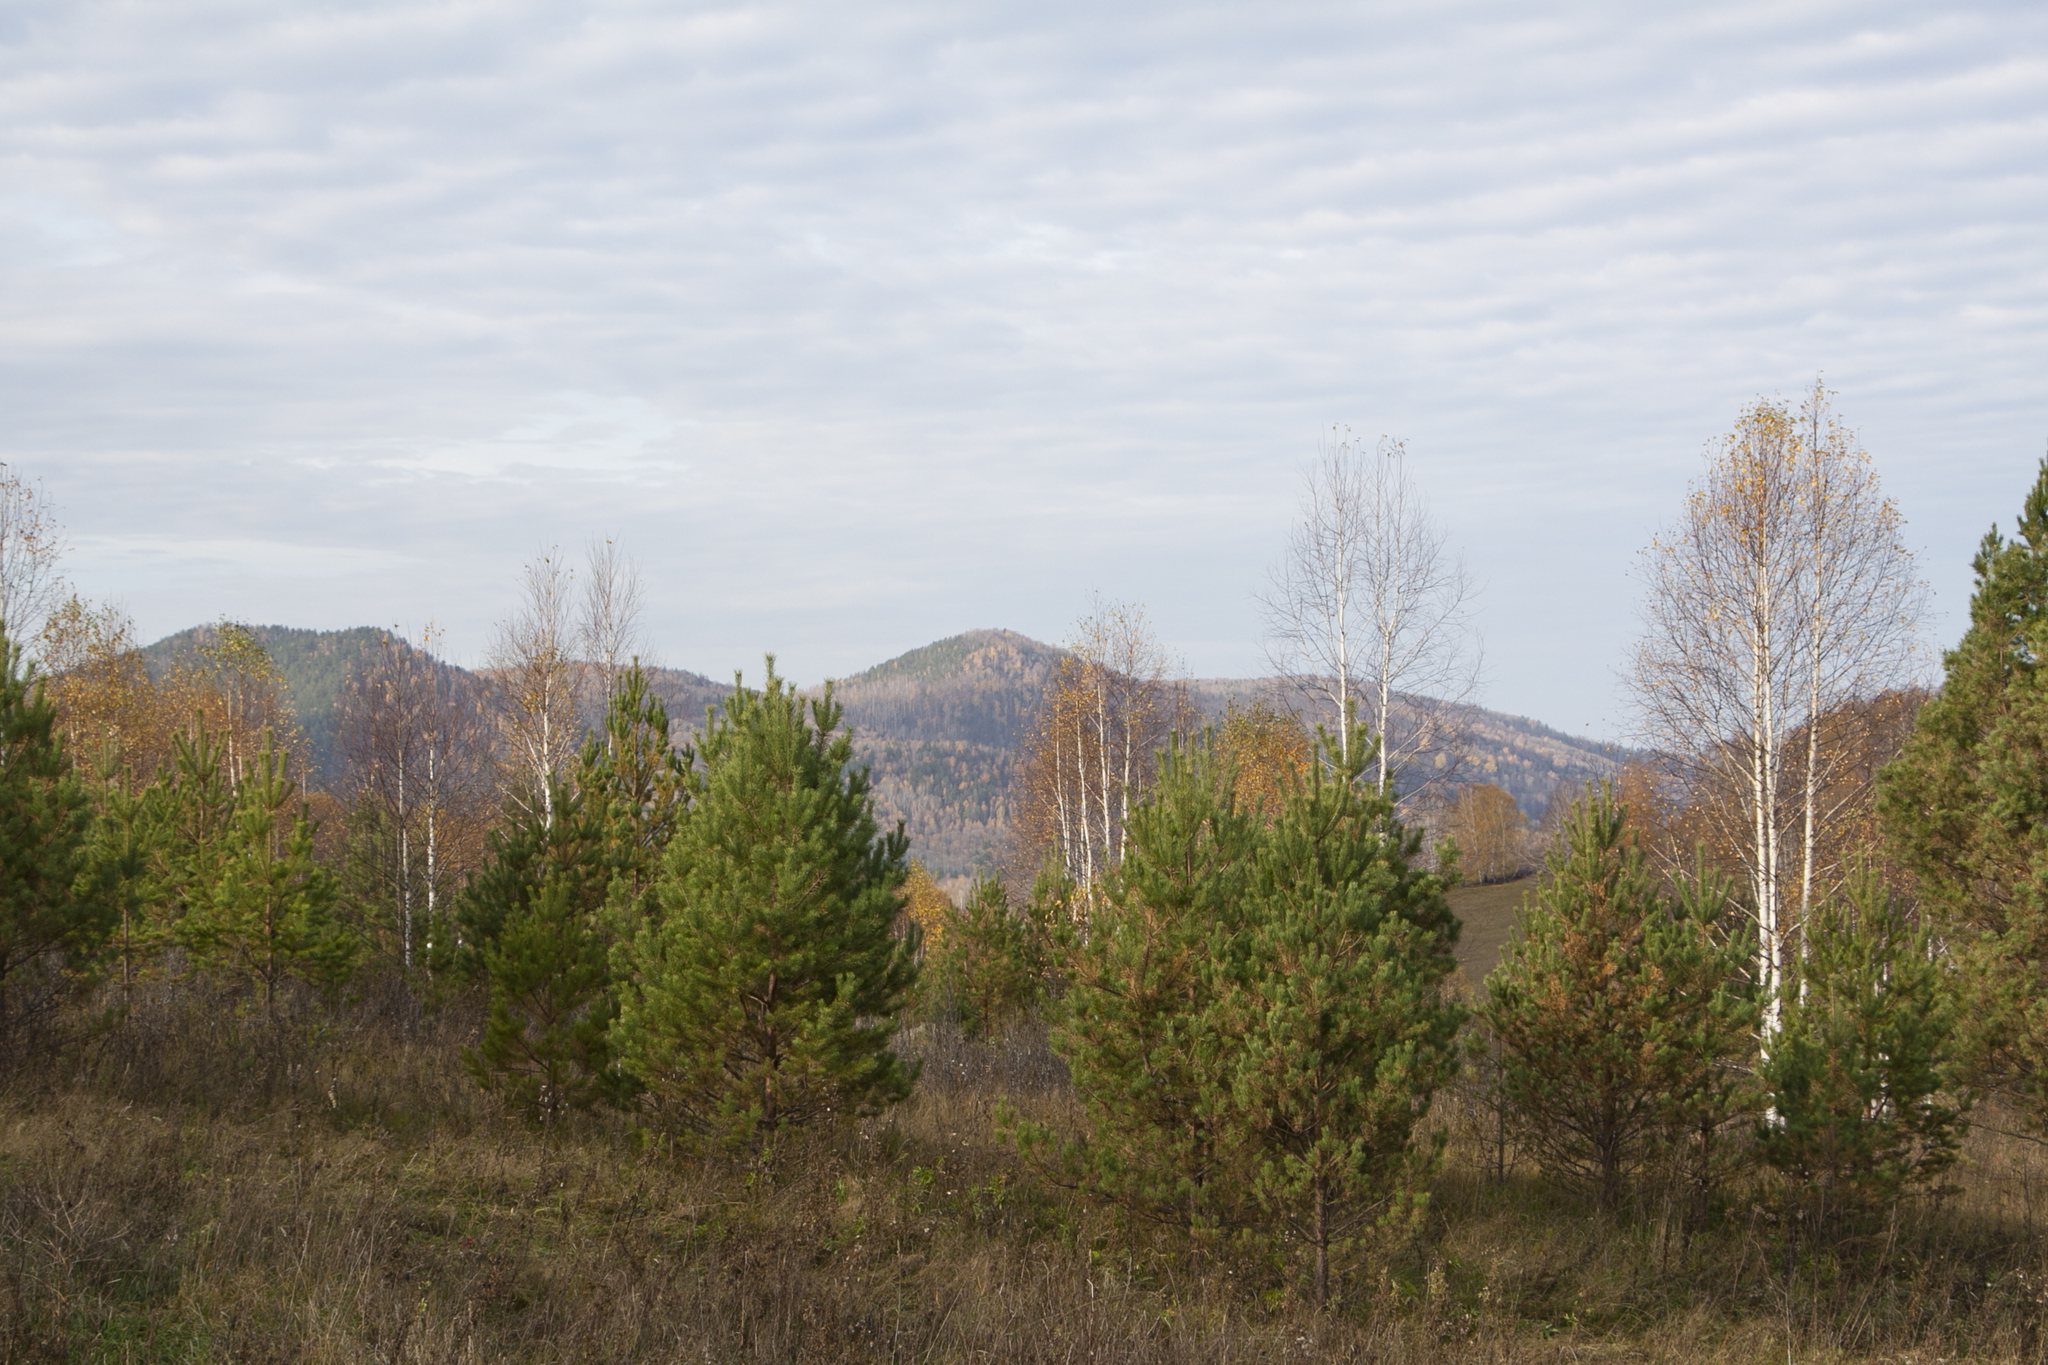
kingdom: Plantae
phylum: Tracheophyta
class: Pinopsida
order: Pinales
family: Pinaceae
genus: Pinus
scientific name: Pinus sylvestris
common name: Scots pine
